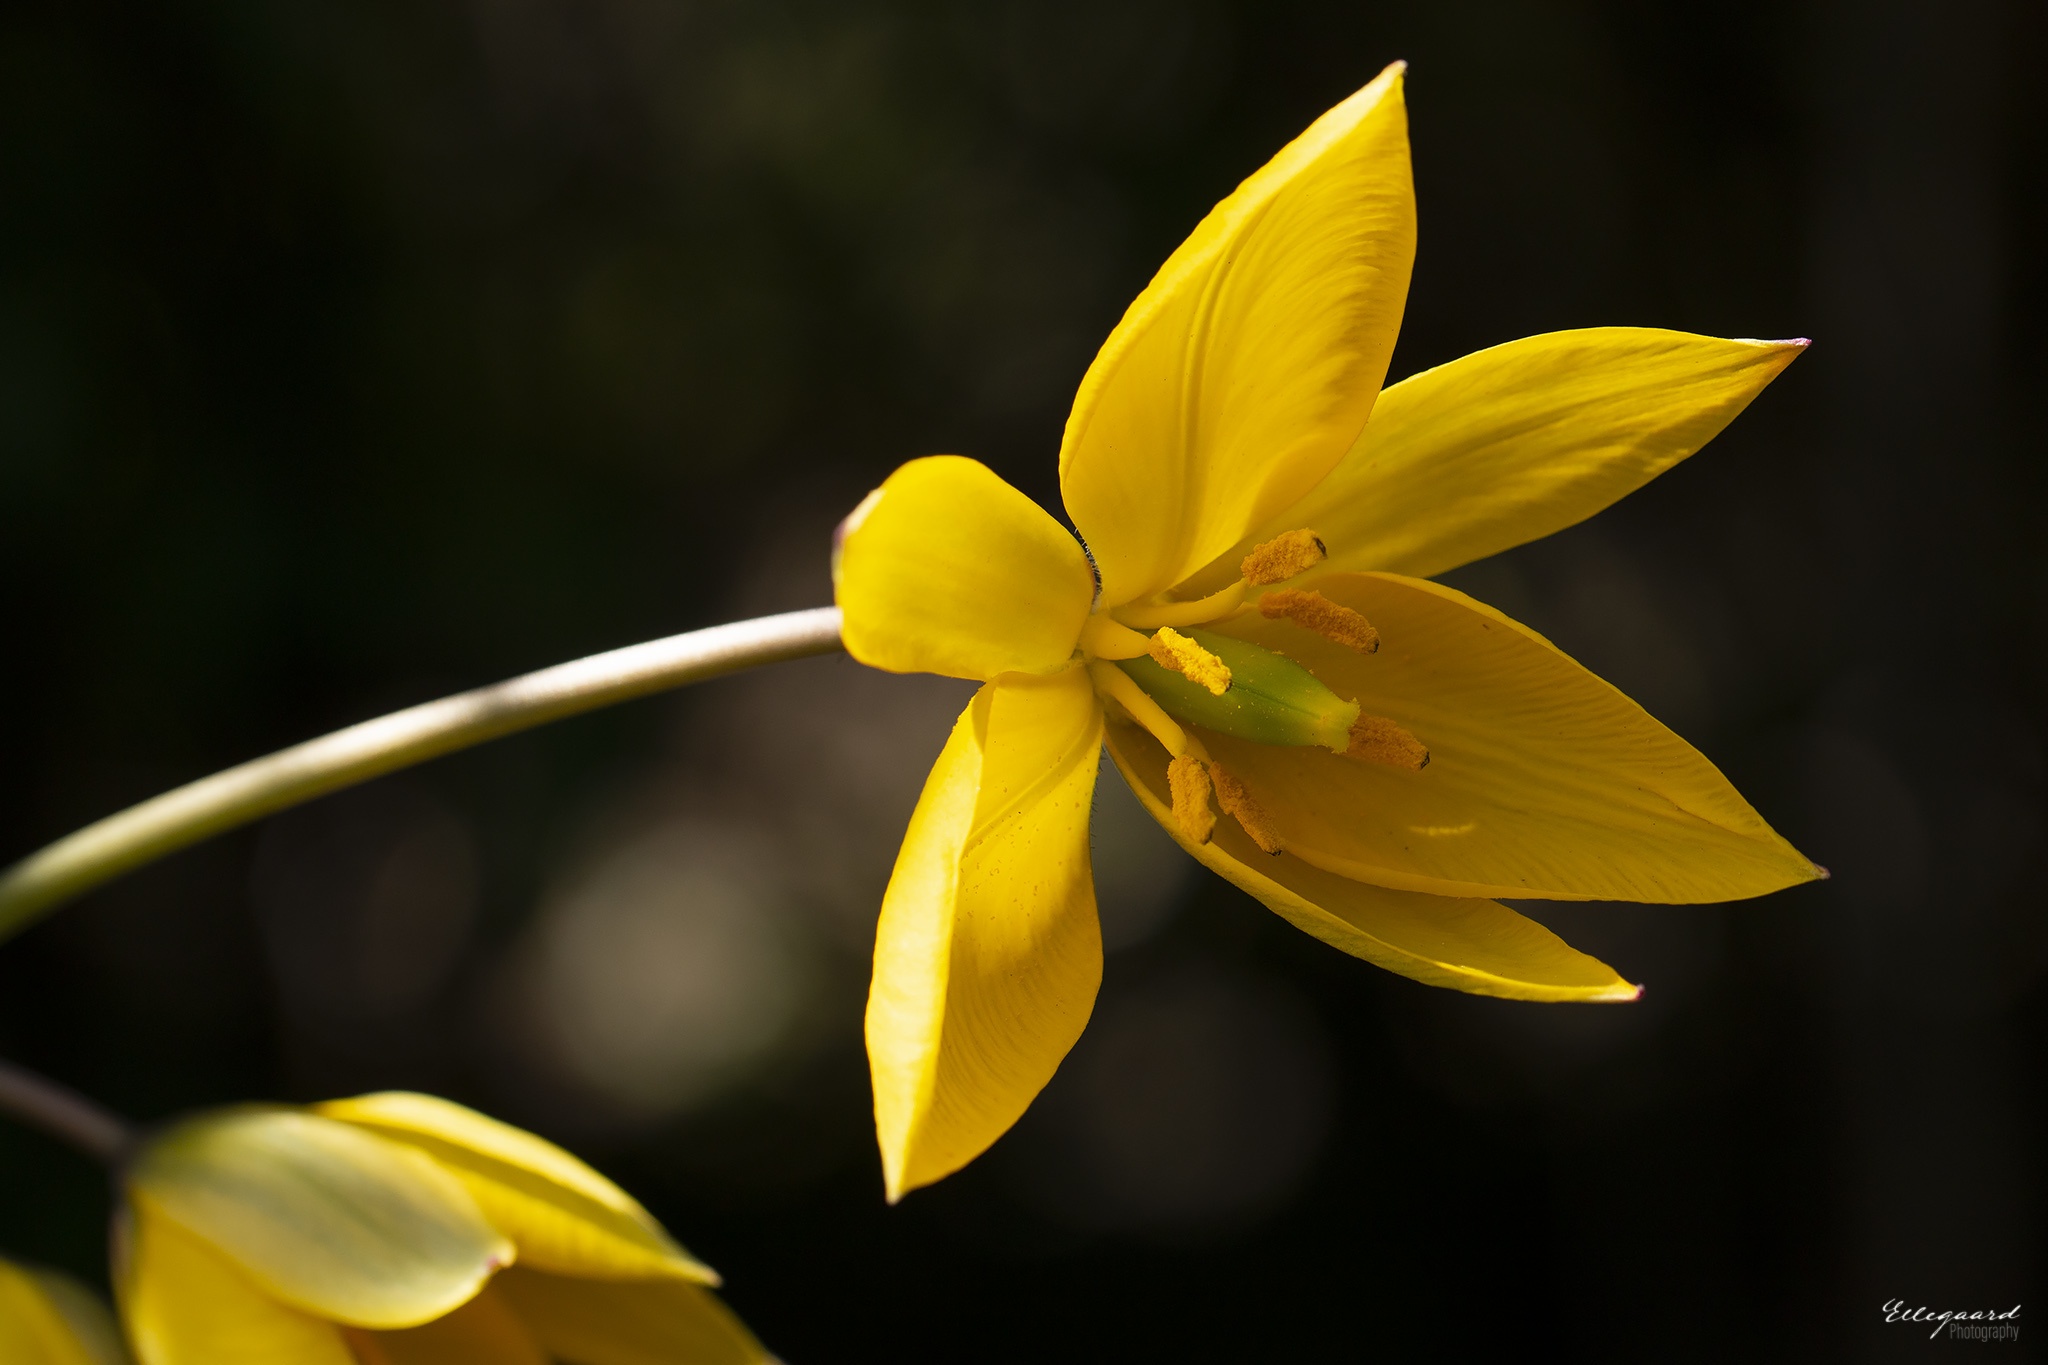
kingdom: Plantae
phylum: Tracheophyta
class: Liliopsida
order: Liliales
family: Liliaceae
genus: Tulipa
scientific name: Tulipa sylvestris
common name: Wild tulip
